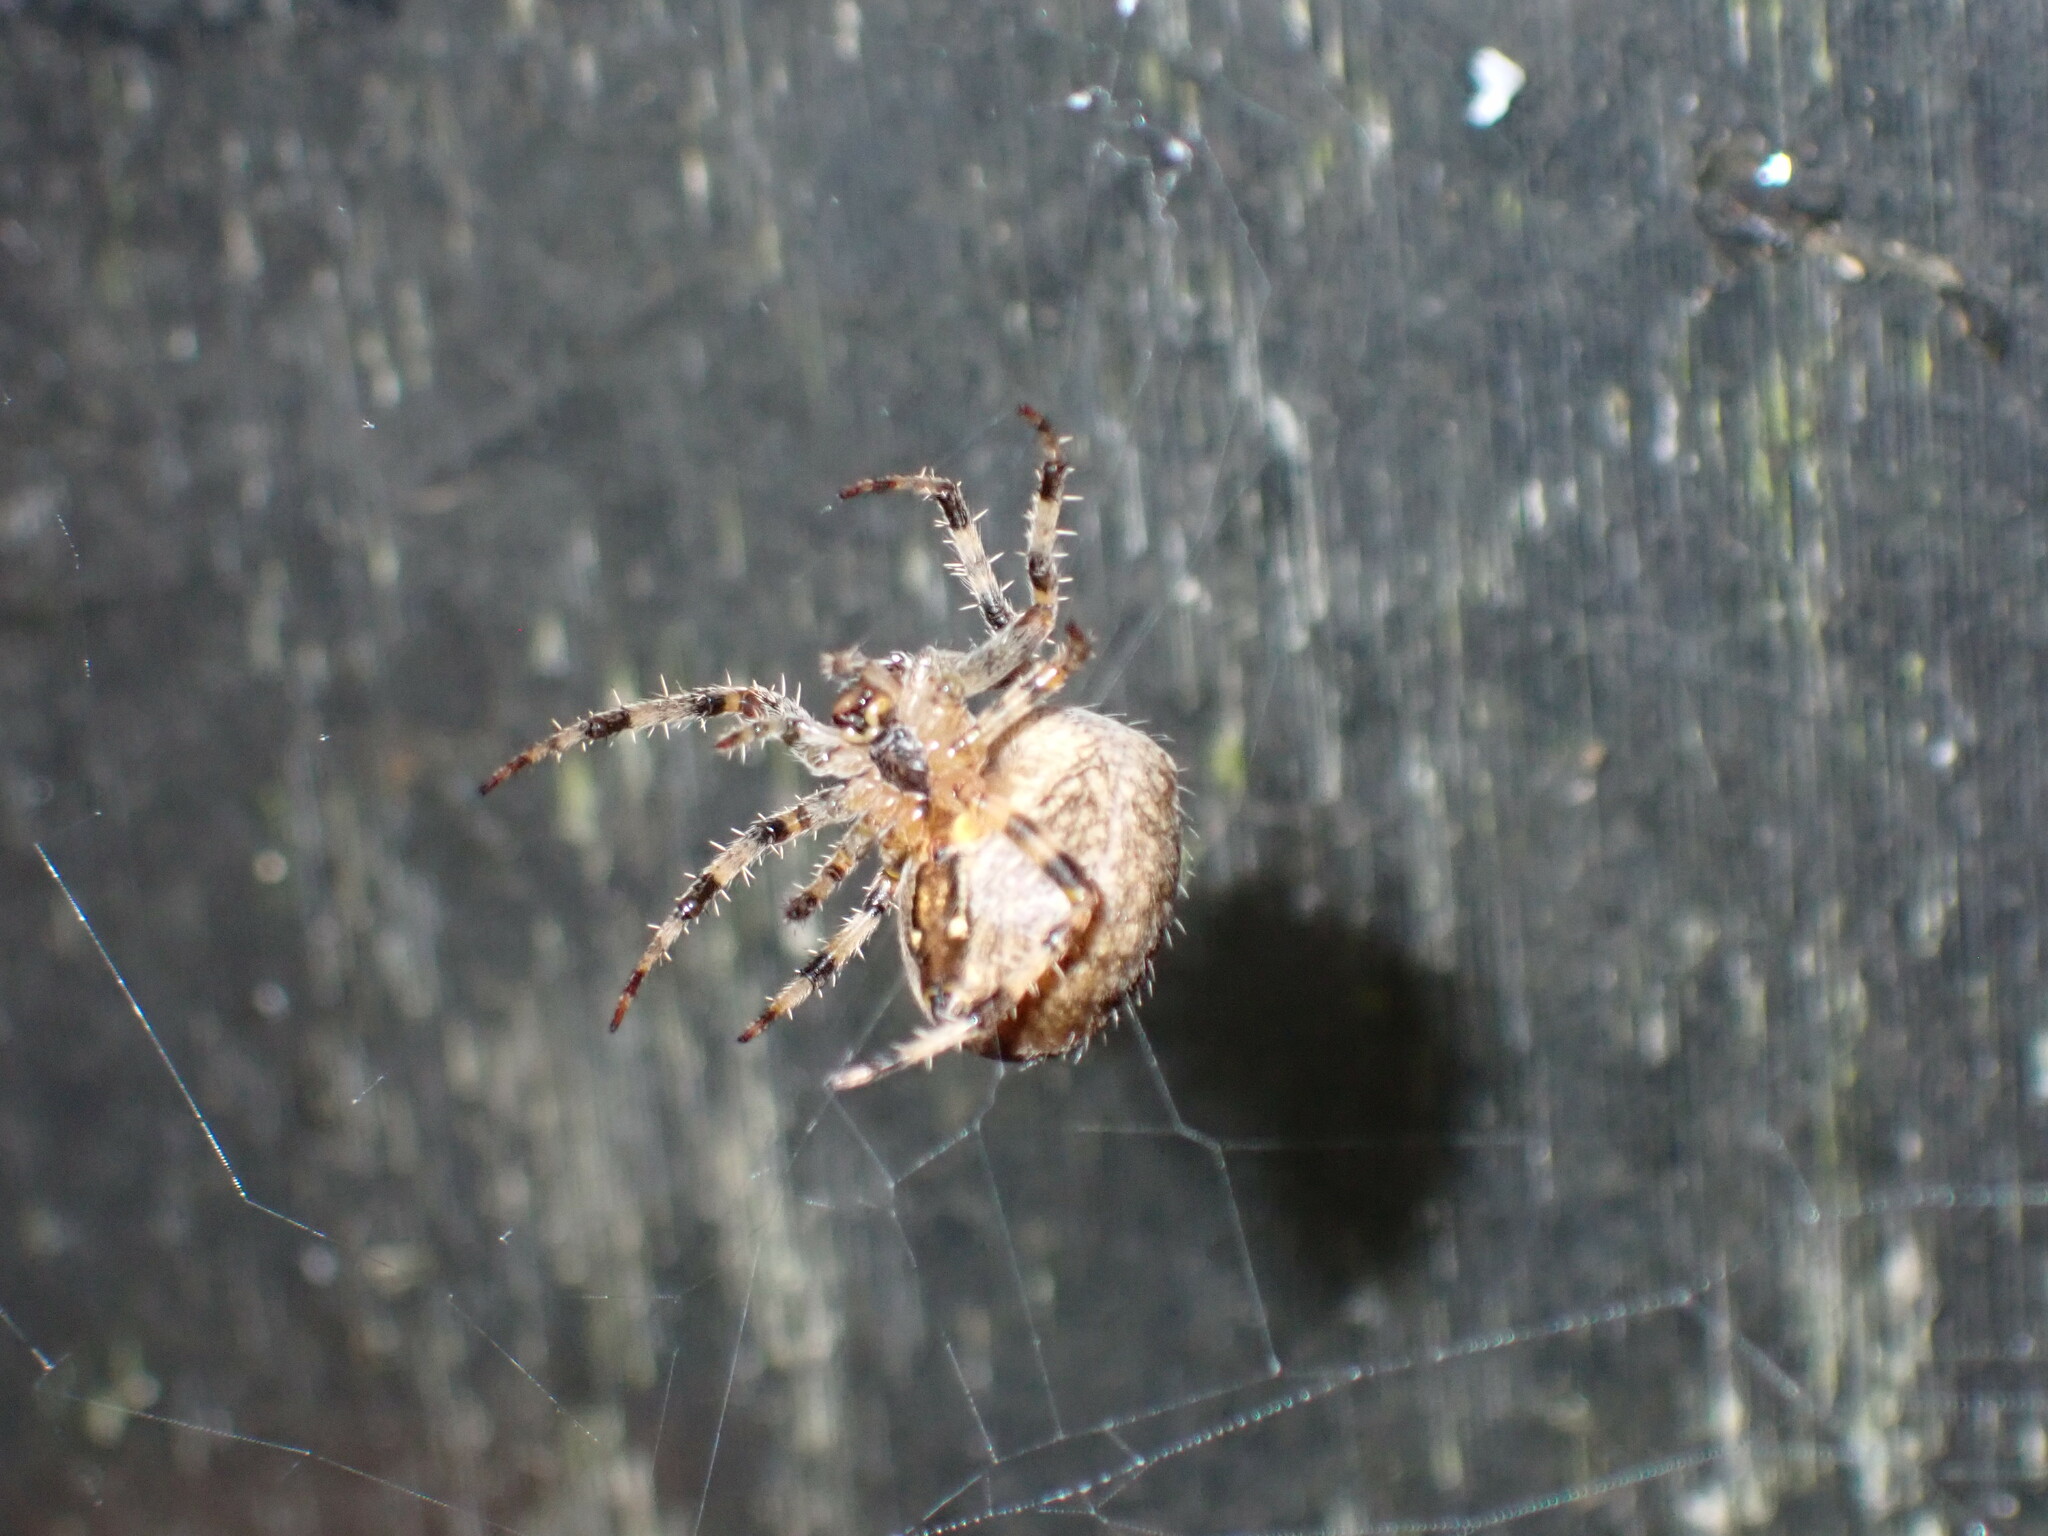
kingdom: Animalia
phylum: Arthropoda
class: Arachnida
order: Araneae
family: Araneidae
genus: Araneus
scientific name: Araneus diadematus
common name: Cross orbweaver
